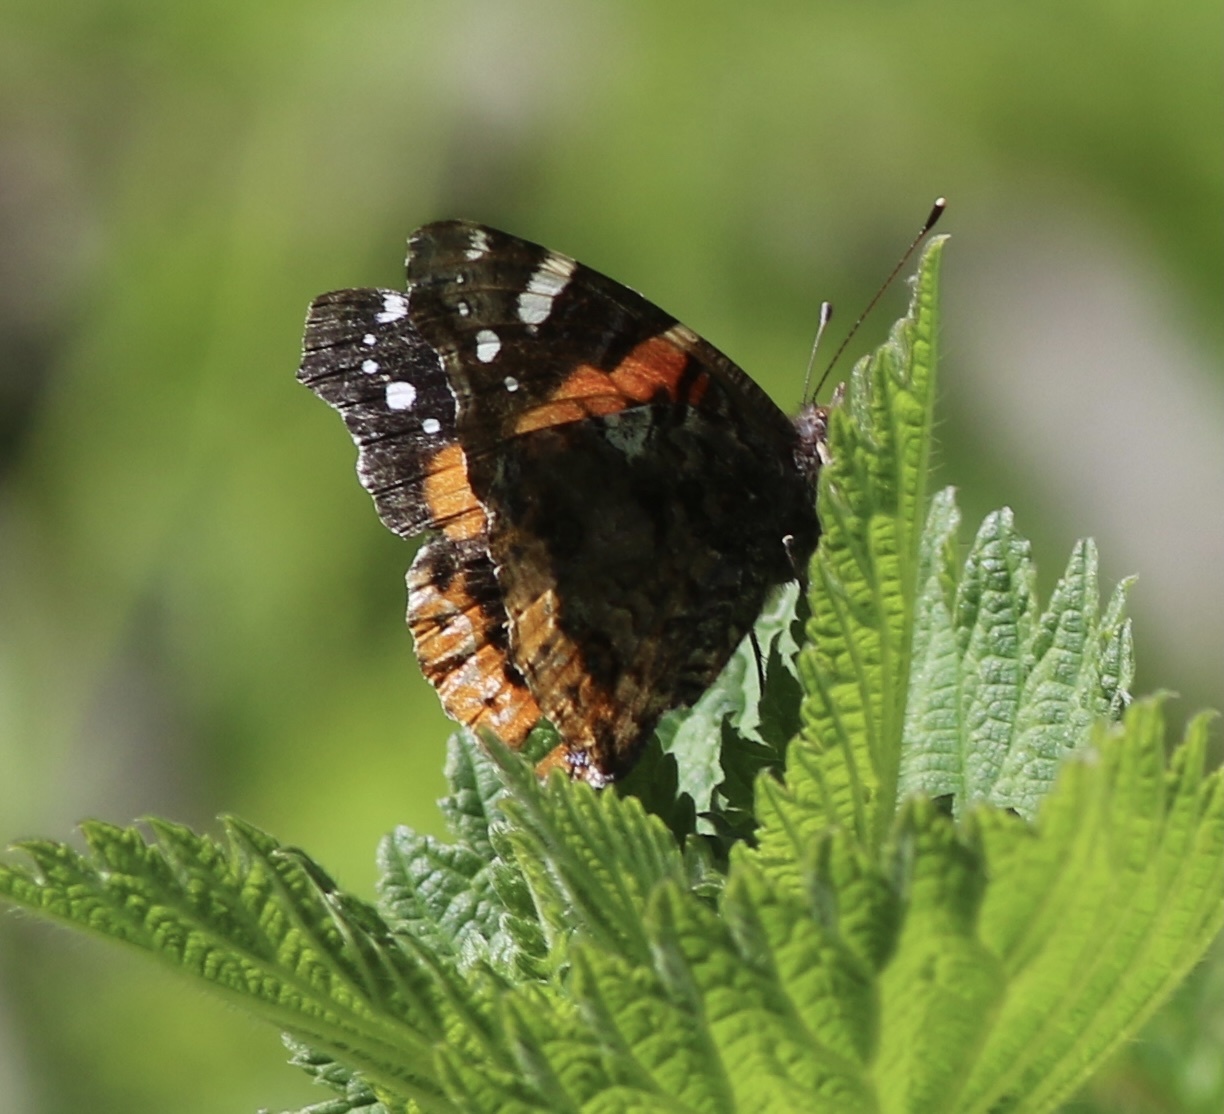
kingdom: Animalia
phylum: Arthropoda
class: Insecta
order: Lepidoptera
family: Nymphalidae
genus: Vanessa
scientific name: Vanessa atalanta
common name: Red admiral
